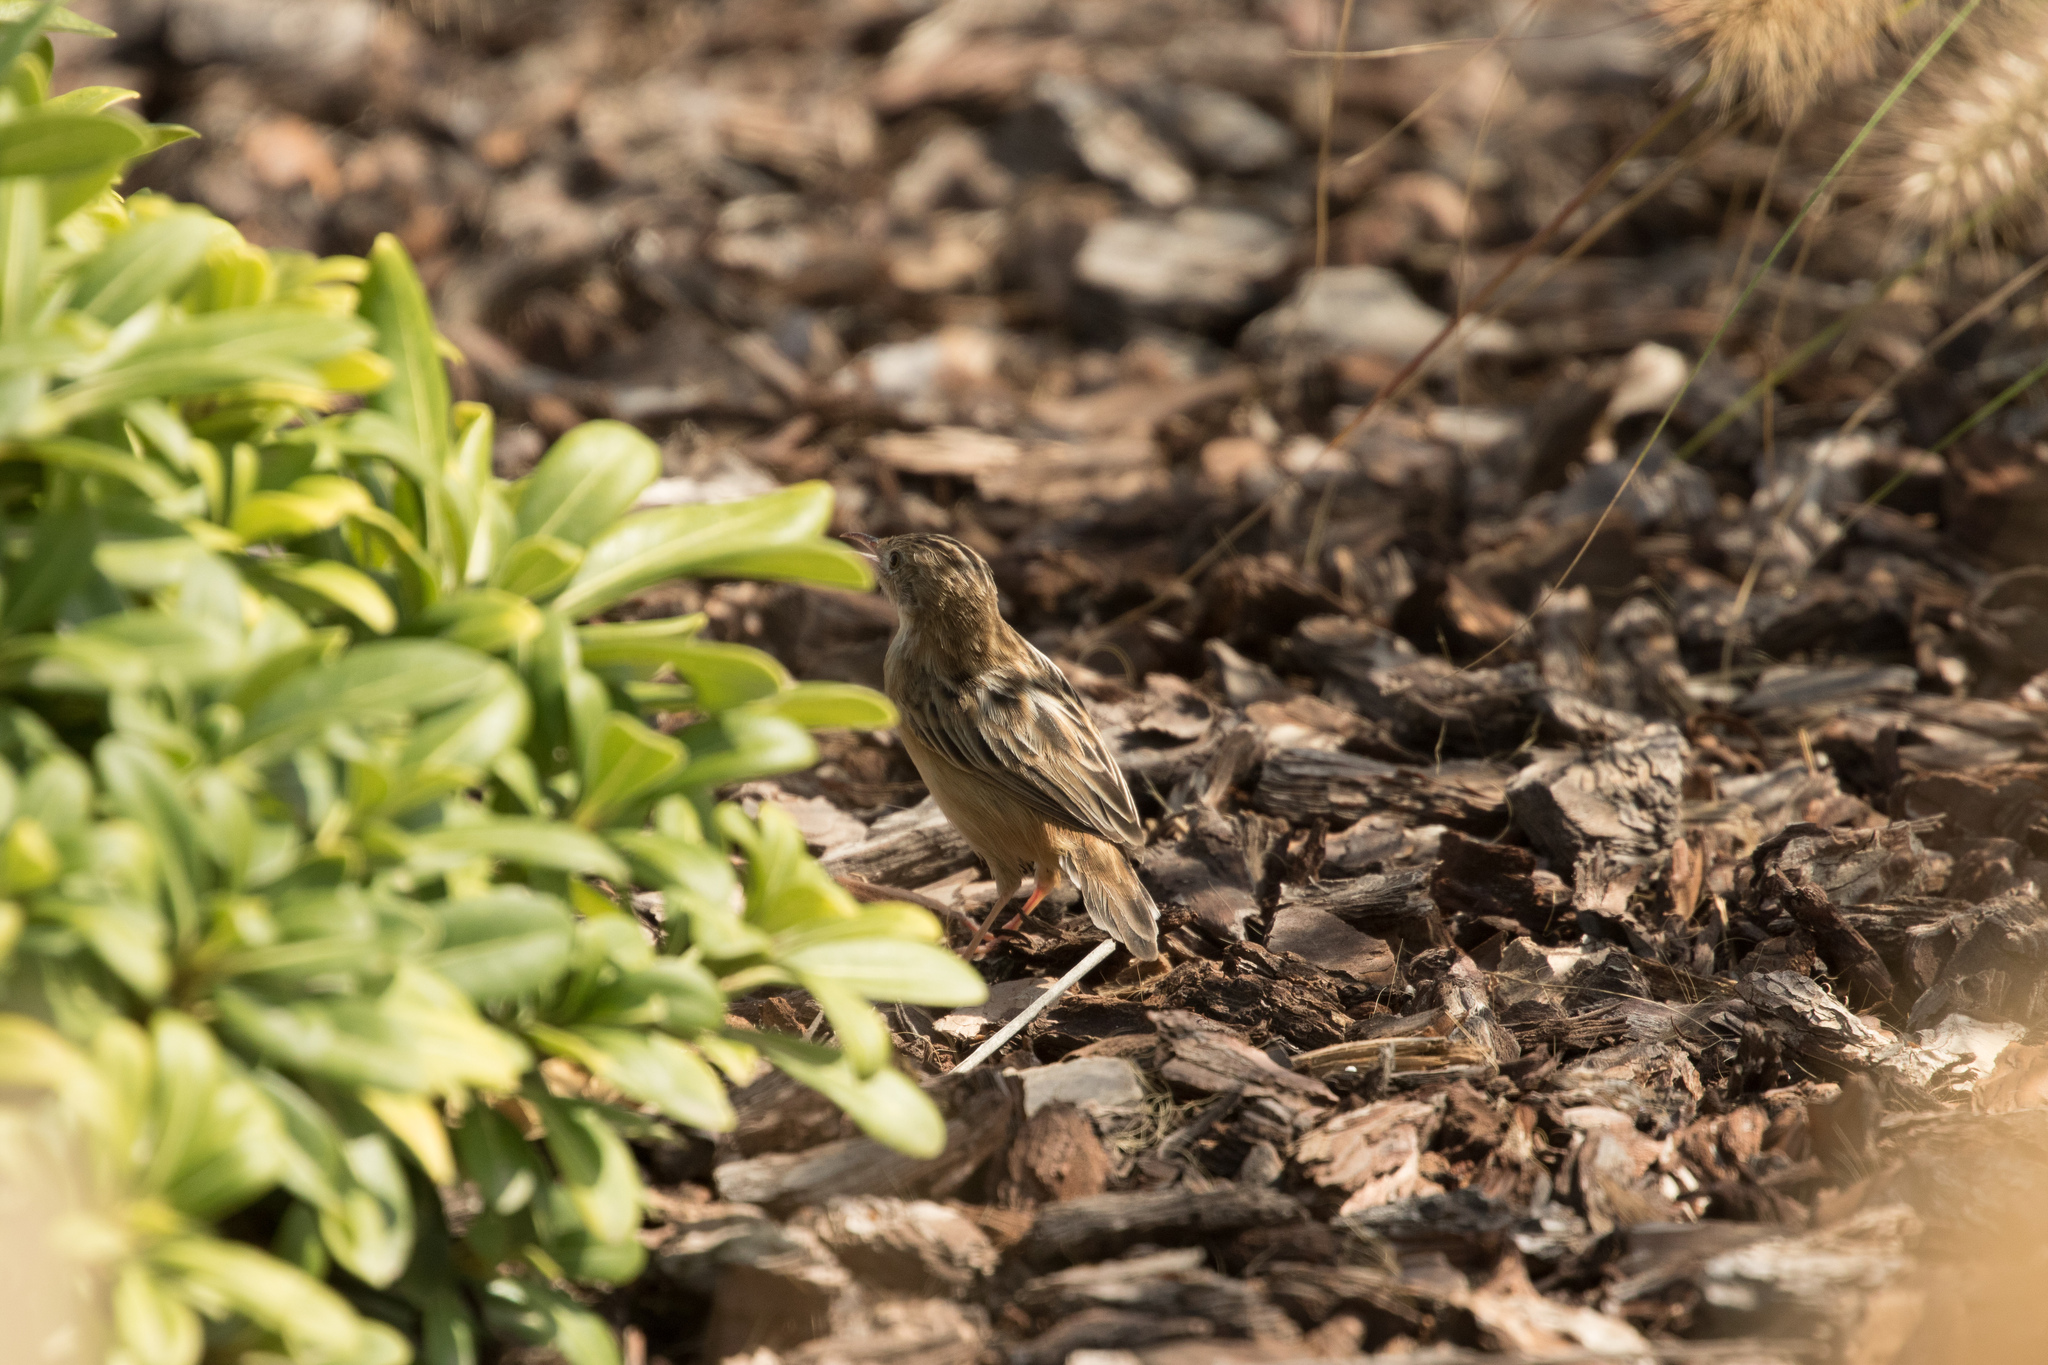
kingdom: Animalia
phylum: Chordata
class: Aves
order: Passeriformes
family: Cisticolidae
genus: Cisticola
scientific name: Cisticola juncidis
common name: Zitting cisticola
